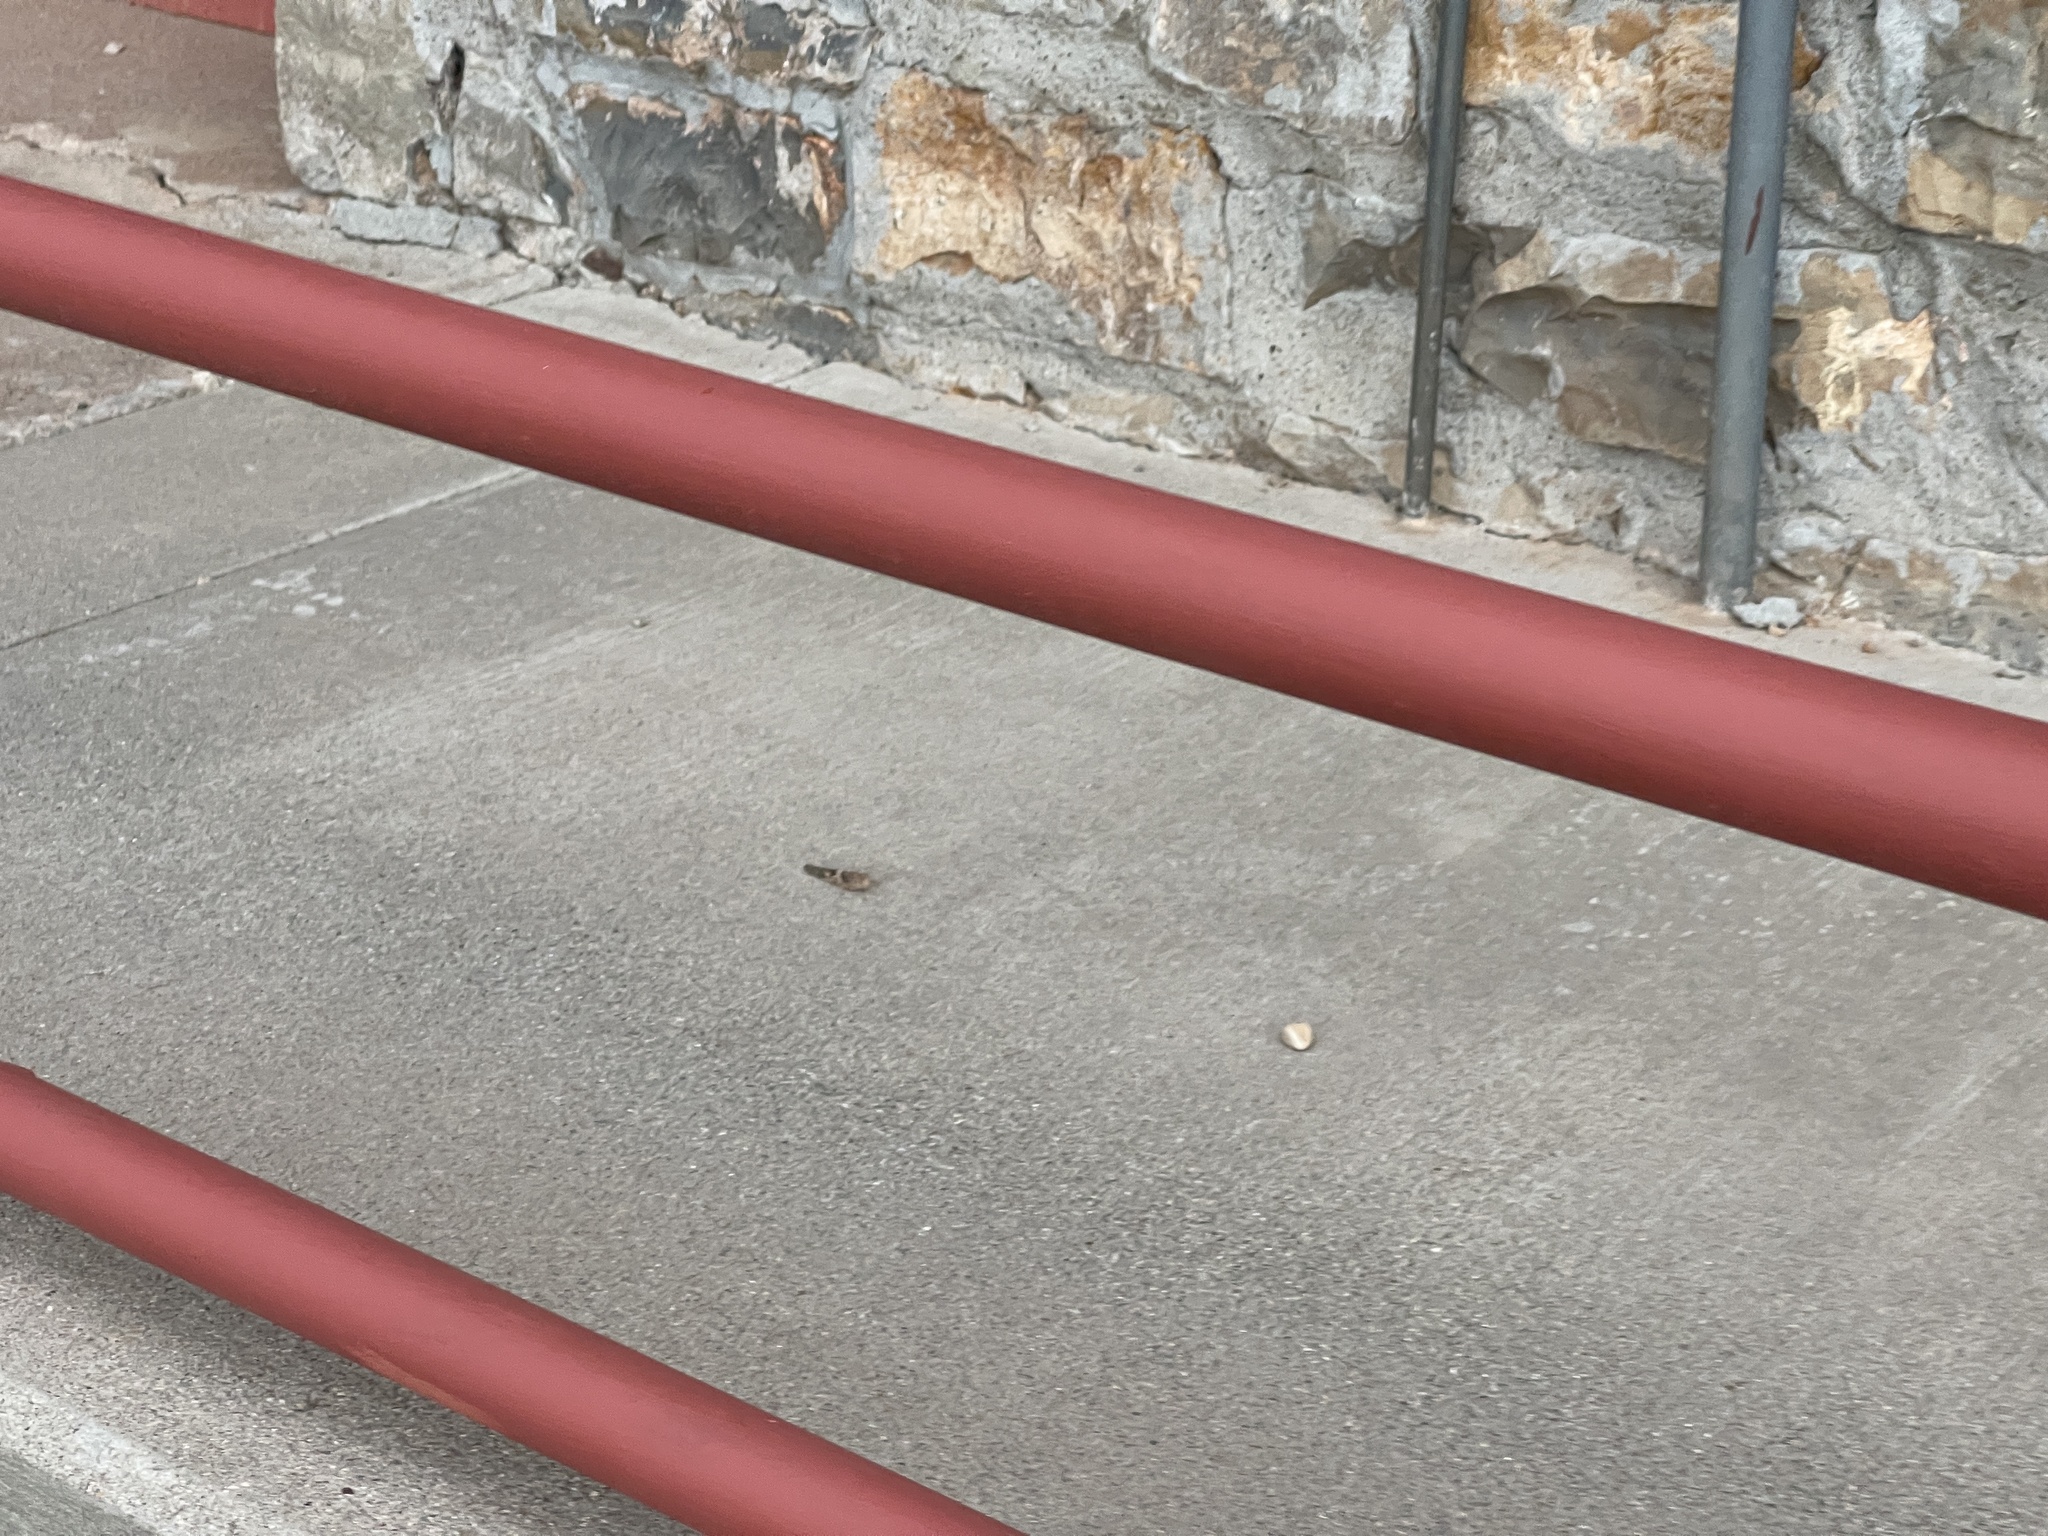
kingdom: Animalia
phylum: Arthropoda
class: Insecta
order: Orthoptera
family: Acrididae
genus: Trimerotropis
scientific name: Trimerotropis pallidipennis
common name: Pallid-winged grasshopper
